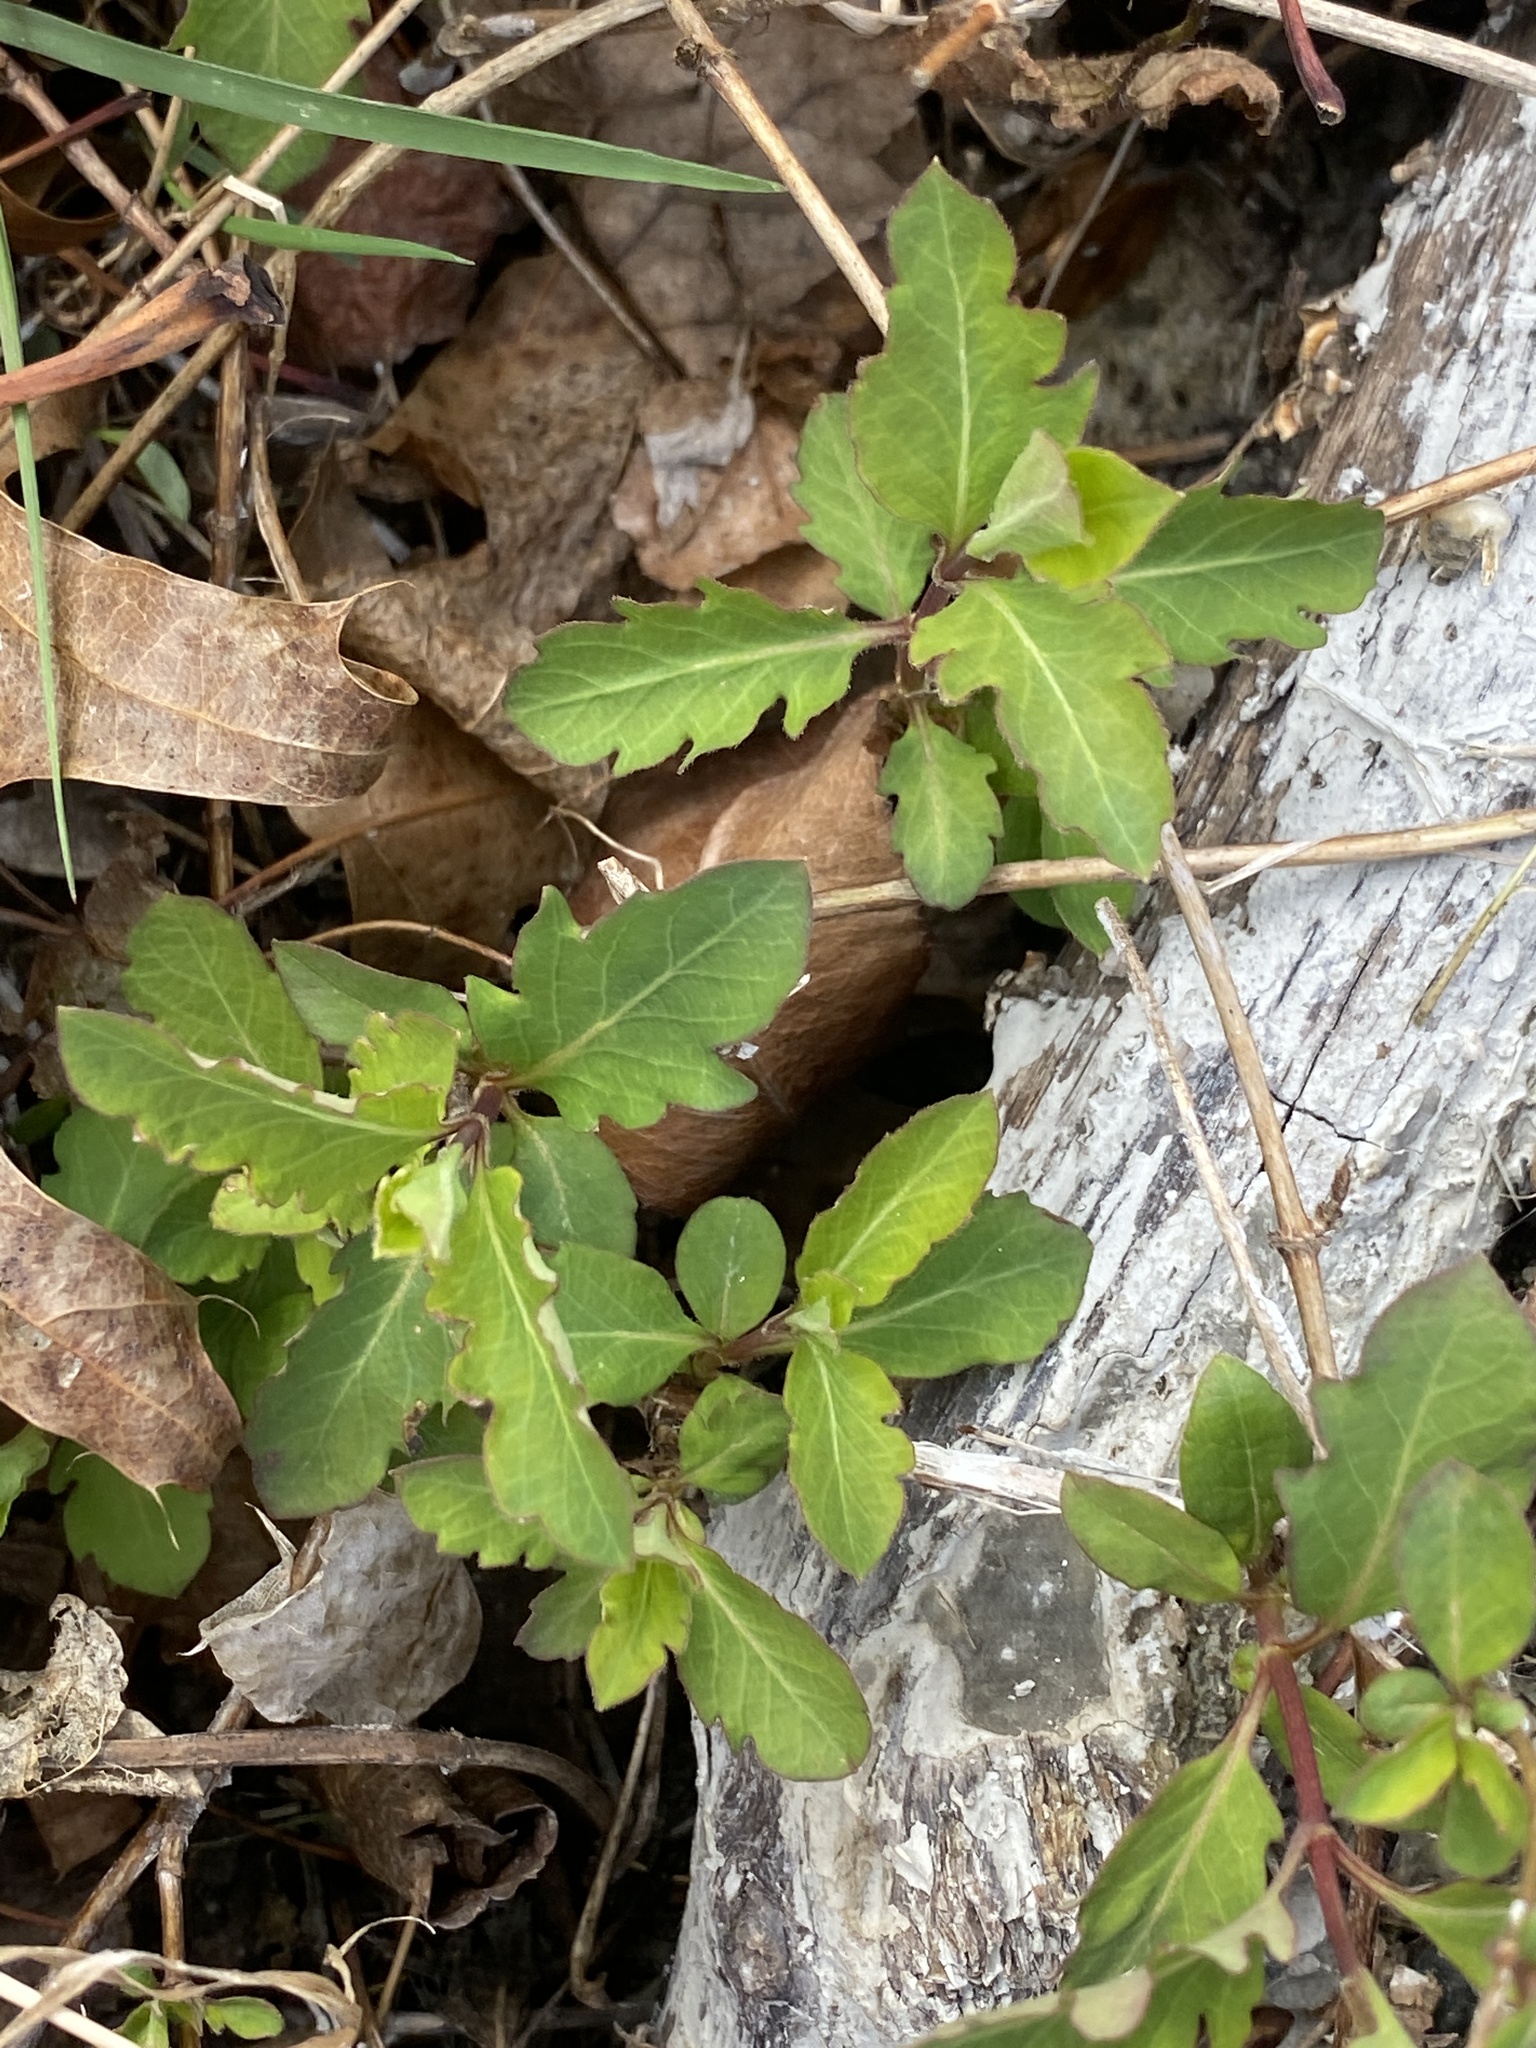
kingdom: Plantae
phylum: Tracheophyta
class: Magnoliopsida
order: Dipsacales
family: Caprifoliaceae
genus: Lonicera
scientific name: Lonicera japonica
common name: Japanese honeysuckle
